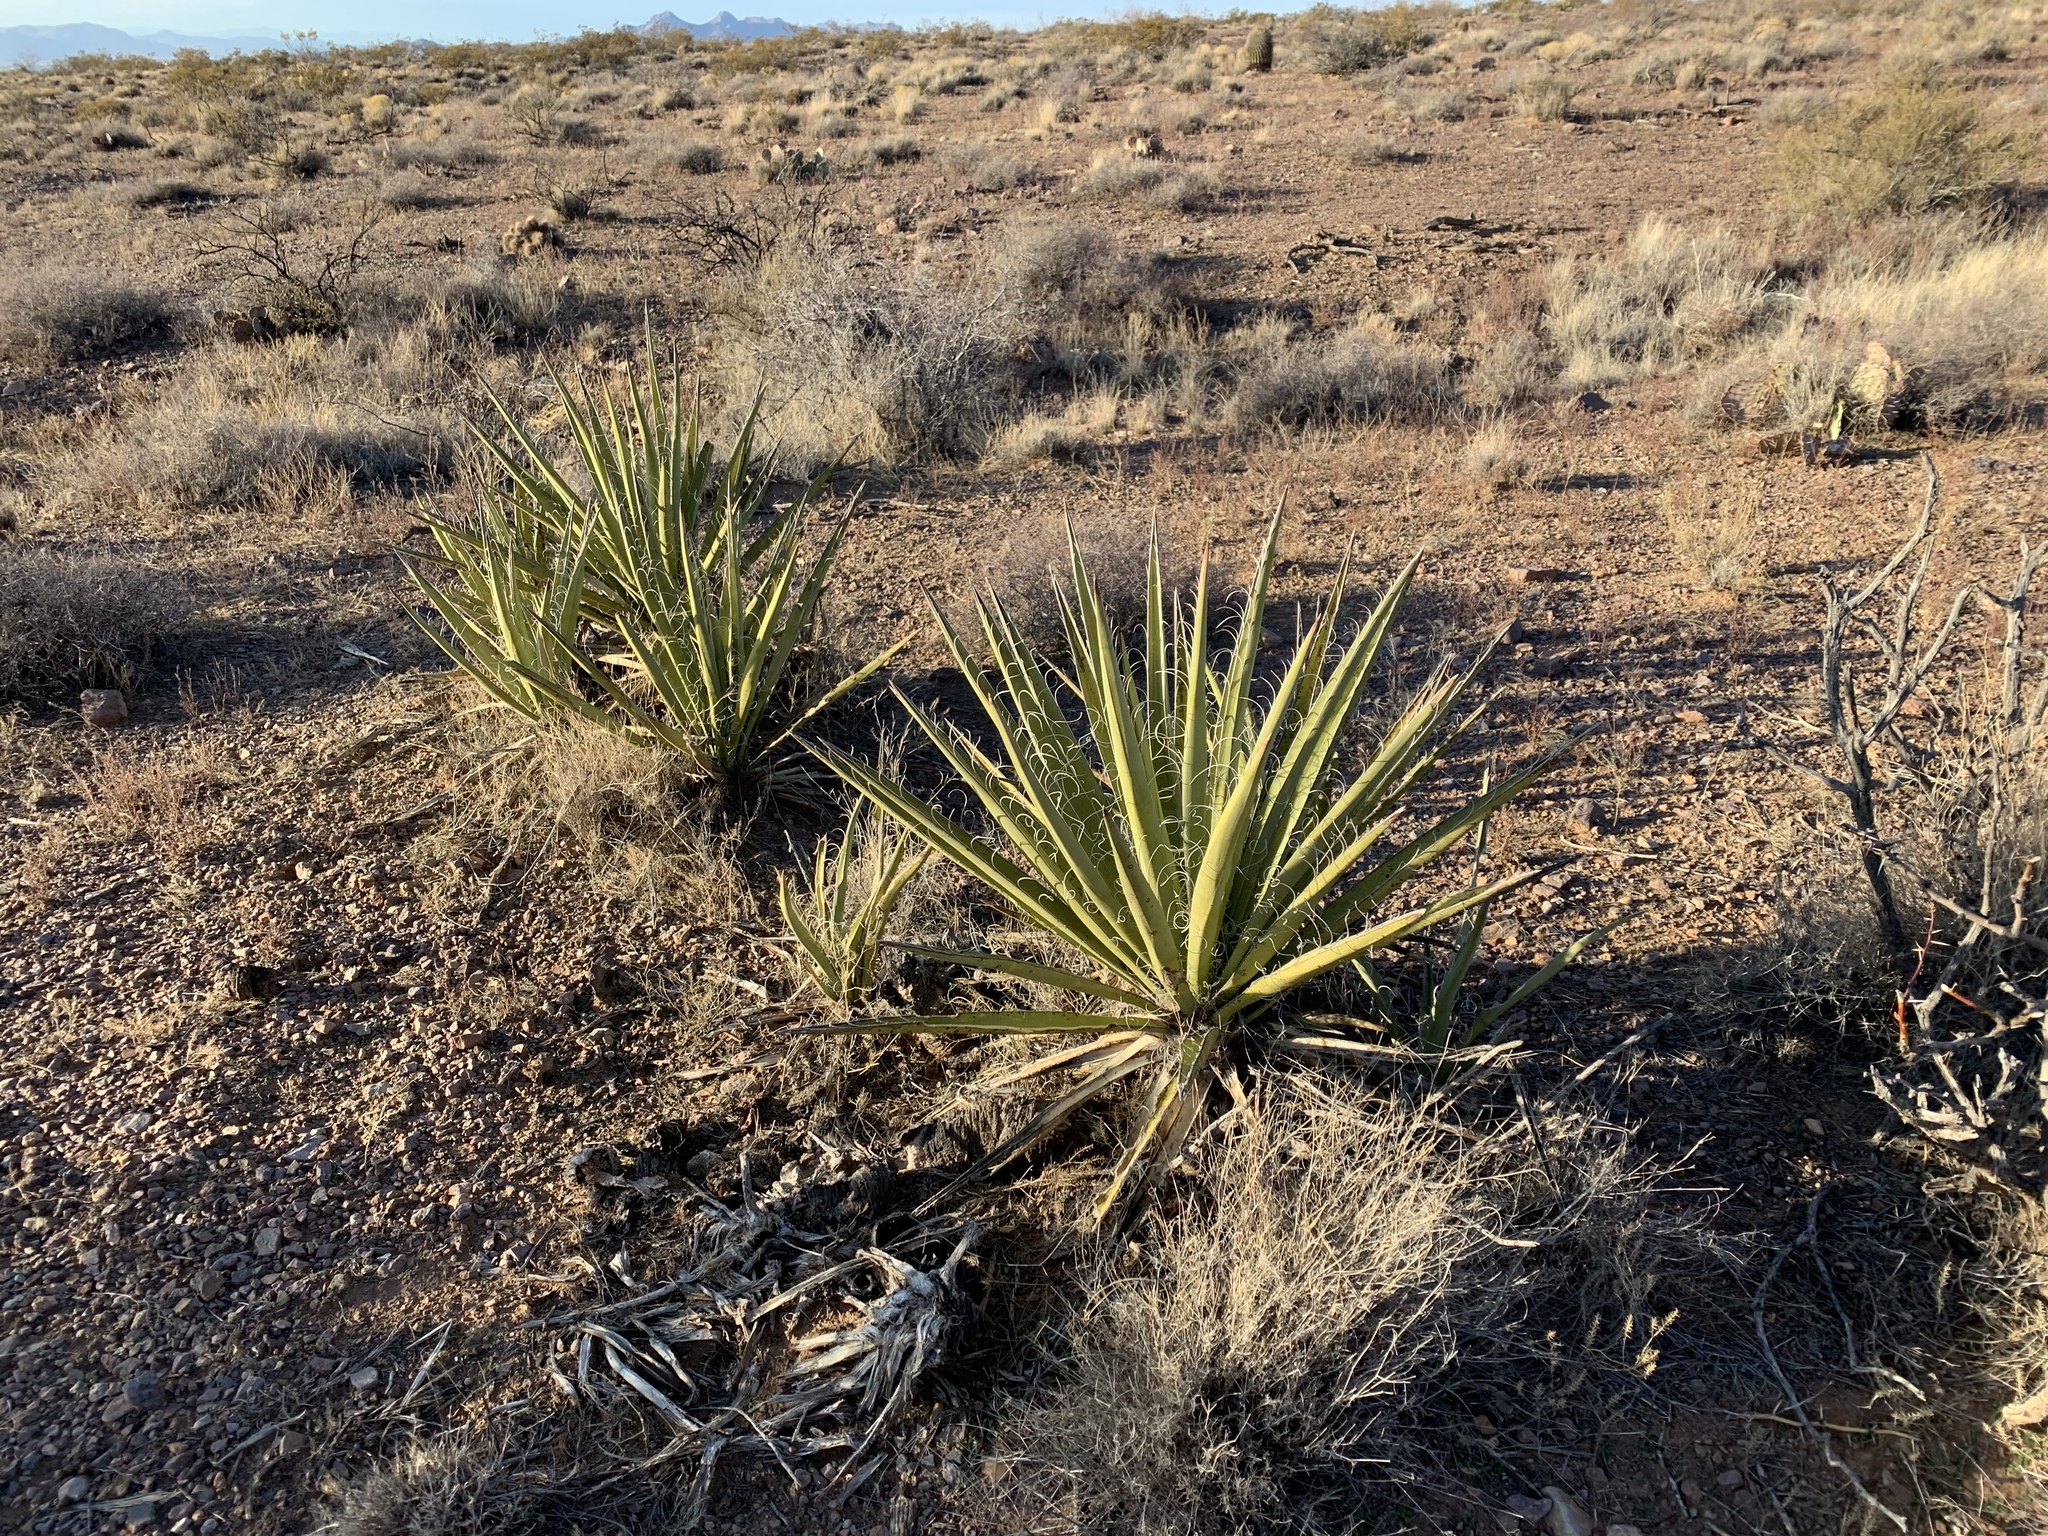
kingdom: Plantae
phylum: Tracheophyta
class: Liliopsida
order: Asparagales
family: Asparagaceae
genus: Yucca
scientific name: Yucca baccata
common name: Banana yucca
